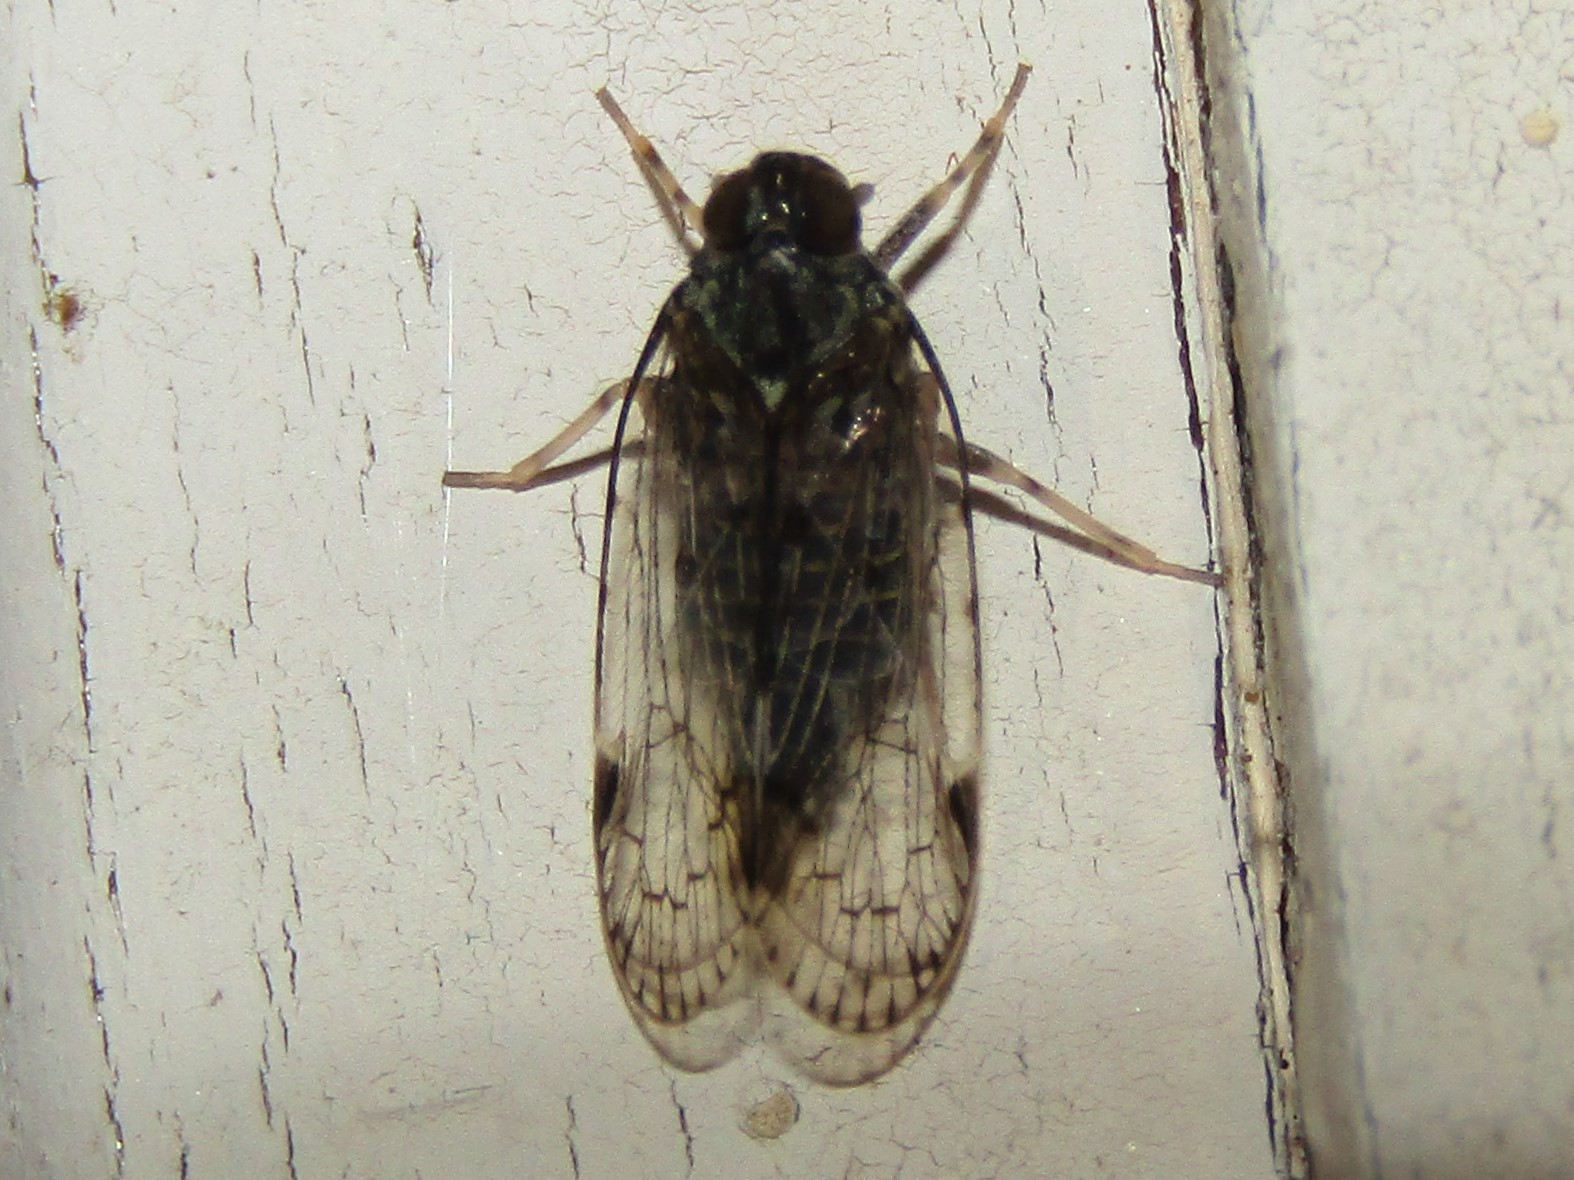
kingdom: Animalia
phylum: Arthropoda
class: Insecta
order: Hemiptera
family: Cixiidae
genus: Melanoliarus
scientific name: Melanoliarus placitus
